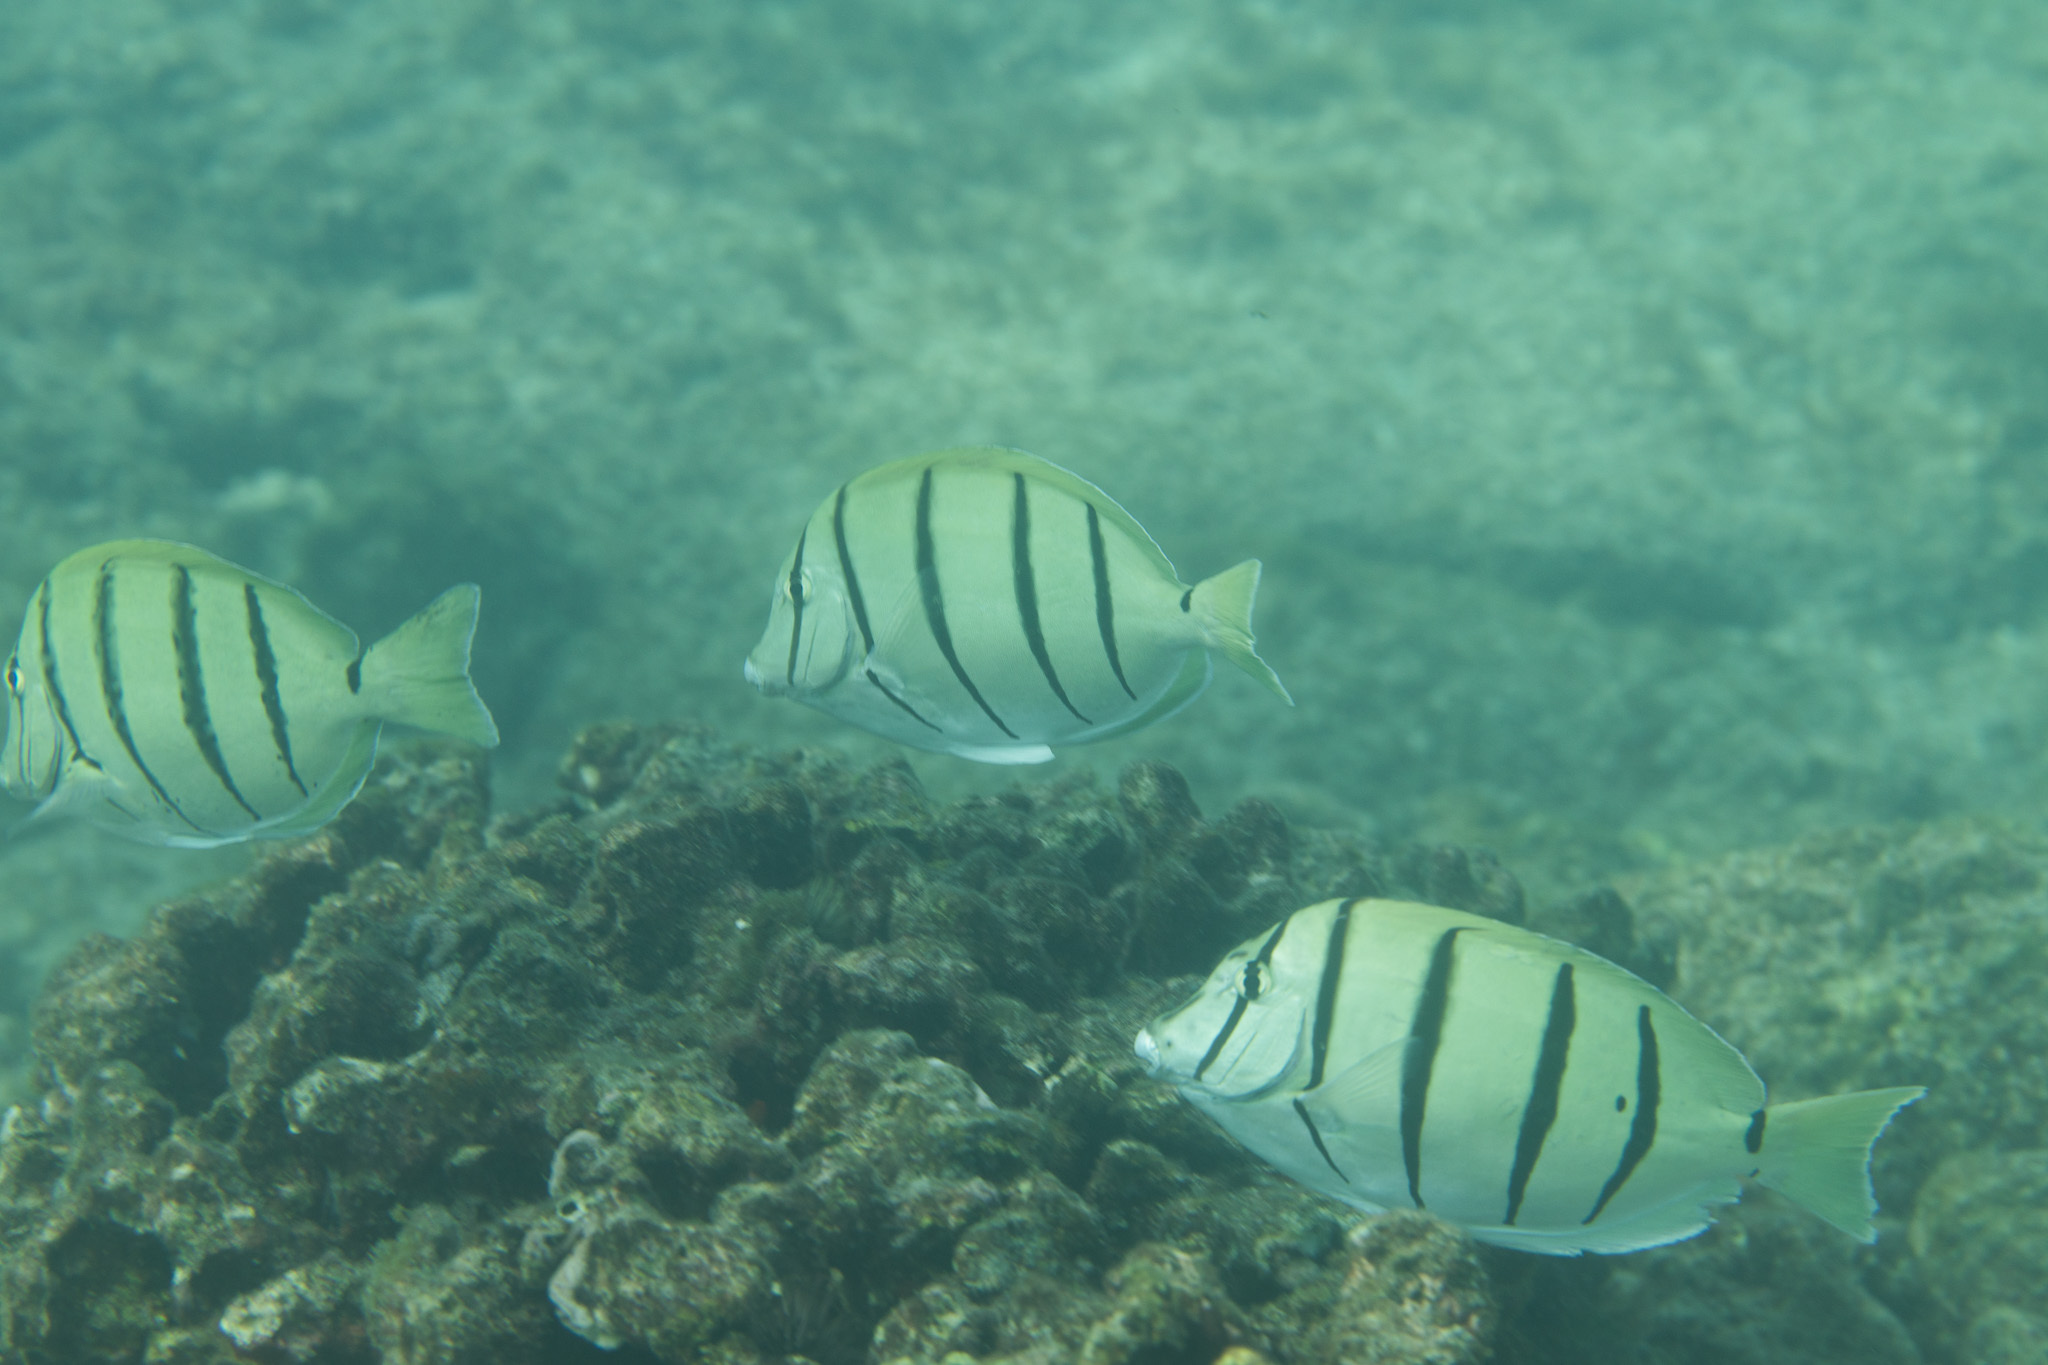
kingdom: Animalia
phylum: Chordata
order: Perciformes
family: Acanthuridae
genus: Acanthurus
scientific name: Acanthurus triostegus
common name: Convict surgeonfish
